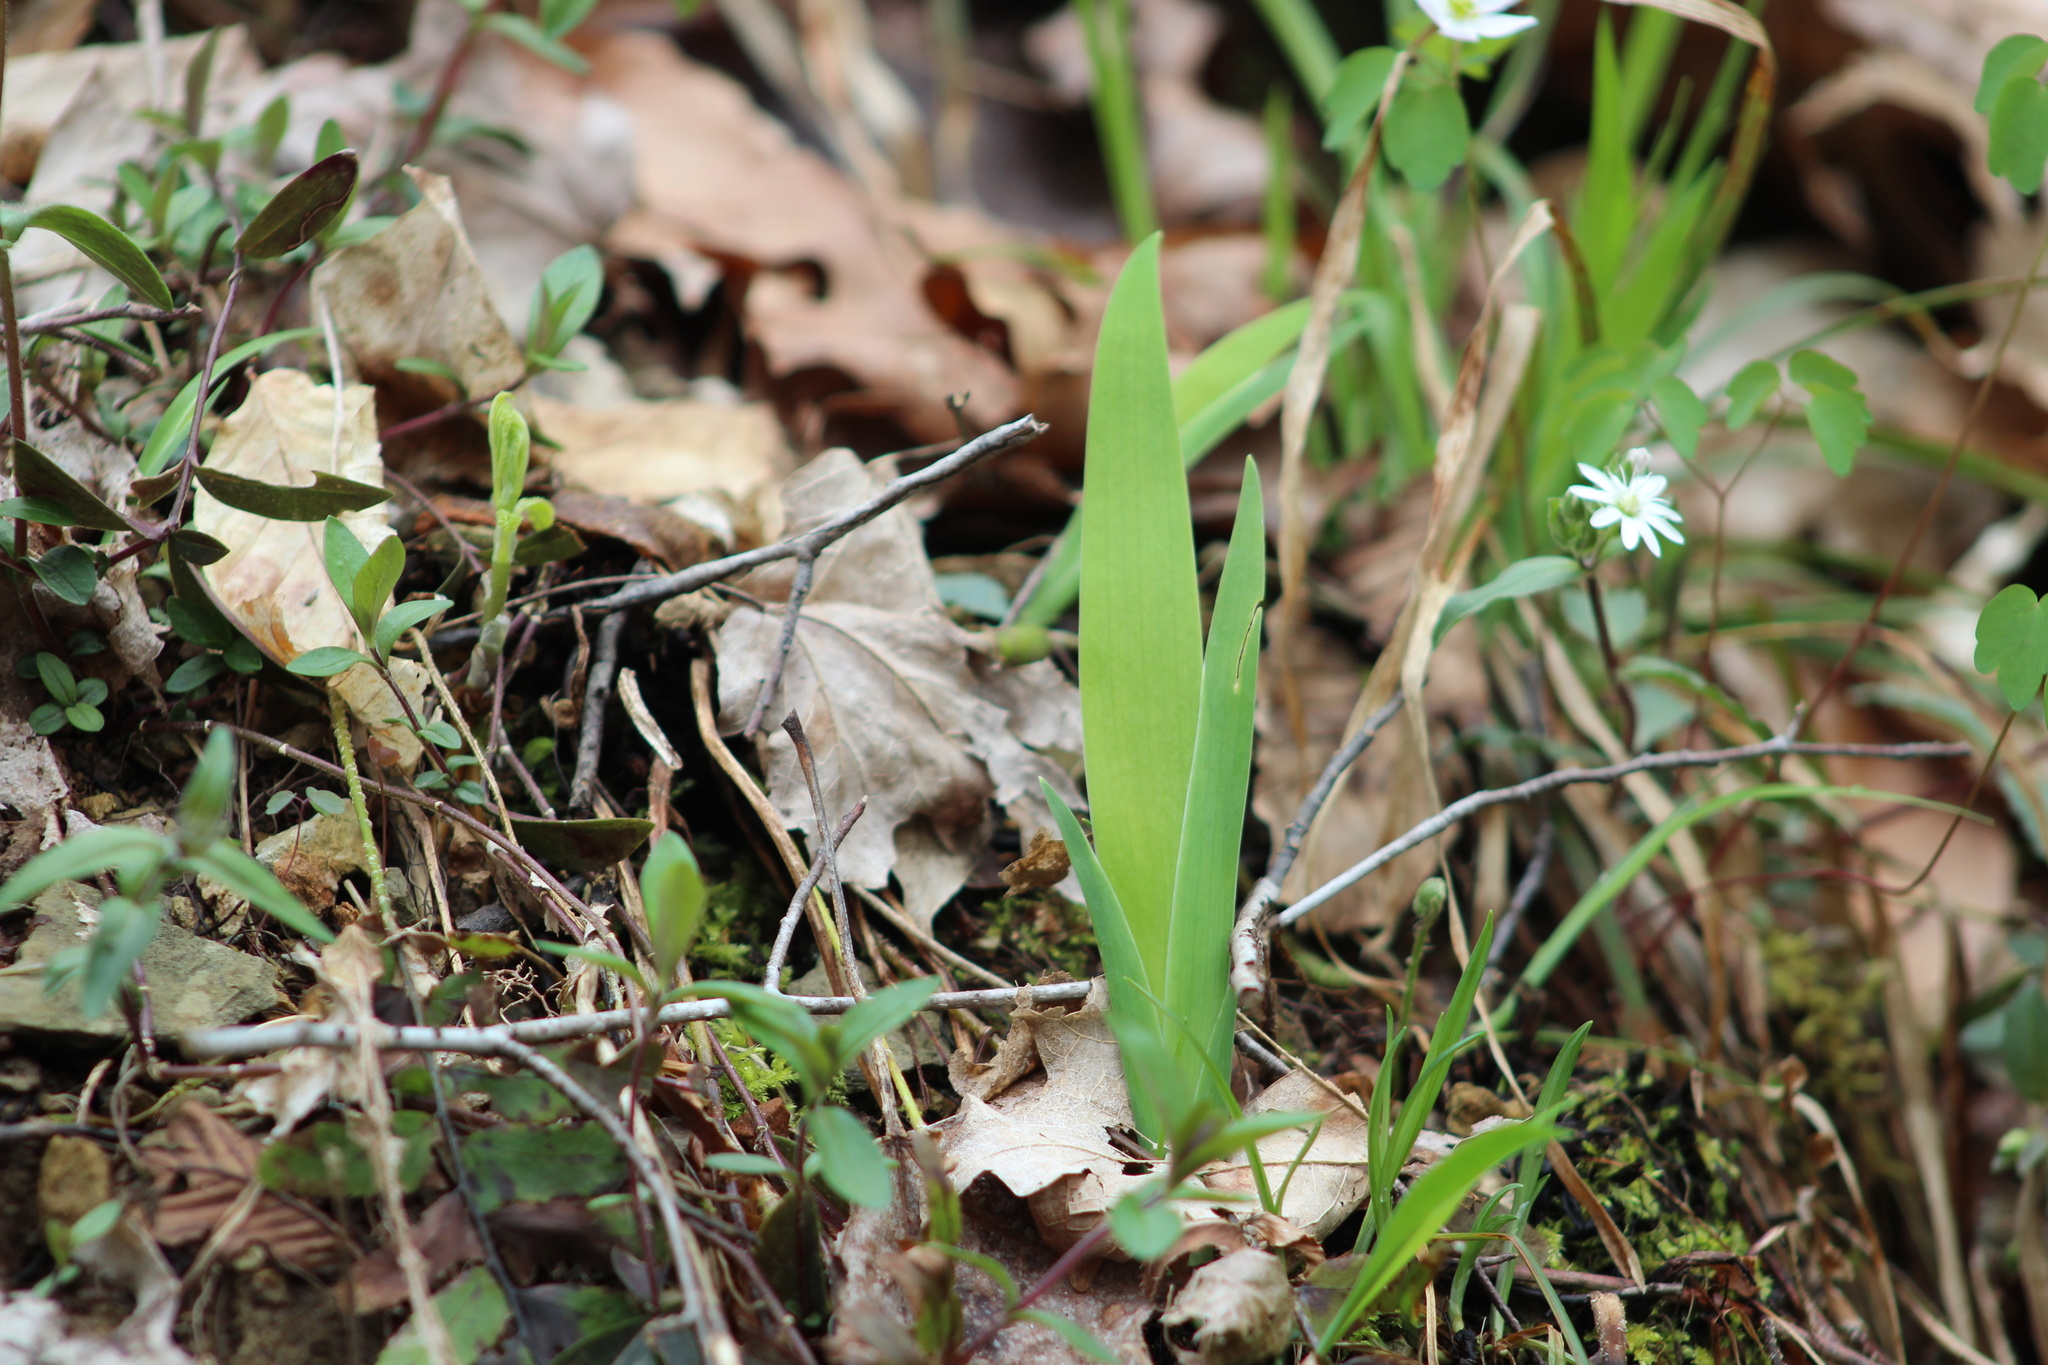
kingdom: Plantae
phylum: Tracheophyta
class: Liliopsida
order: Asparagales
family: Iridaceae
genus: Iris
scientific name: Iris cristata
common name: Crested iris
